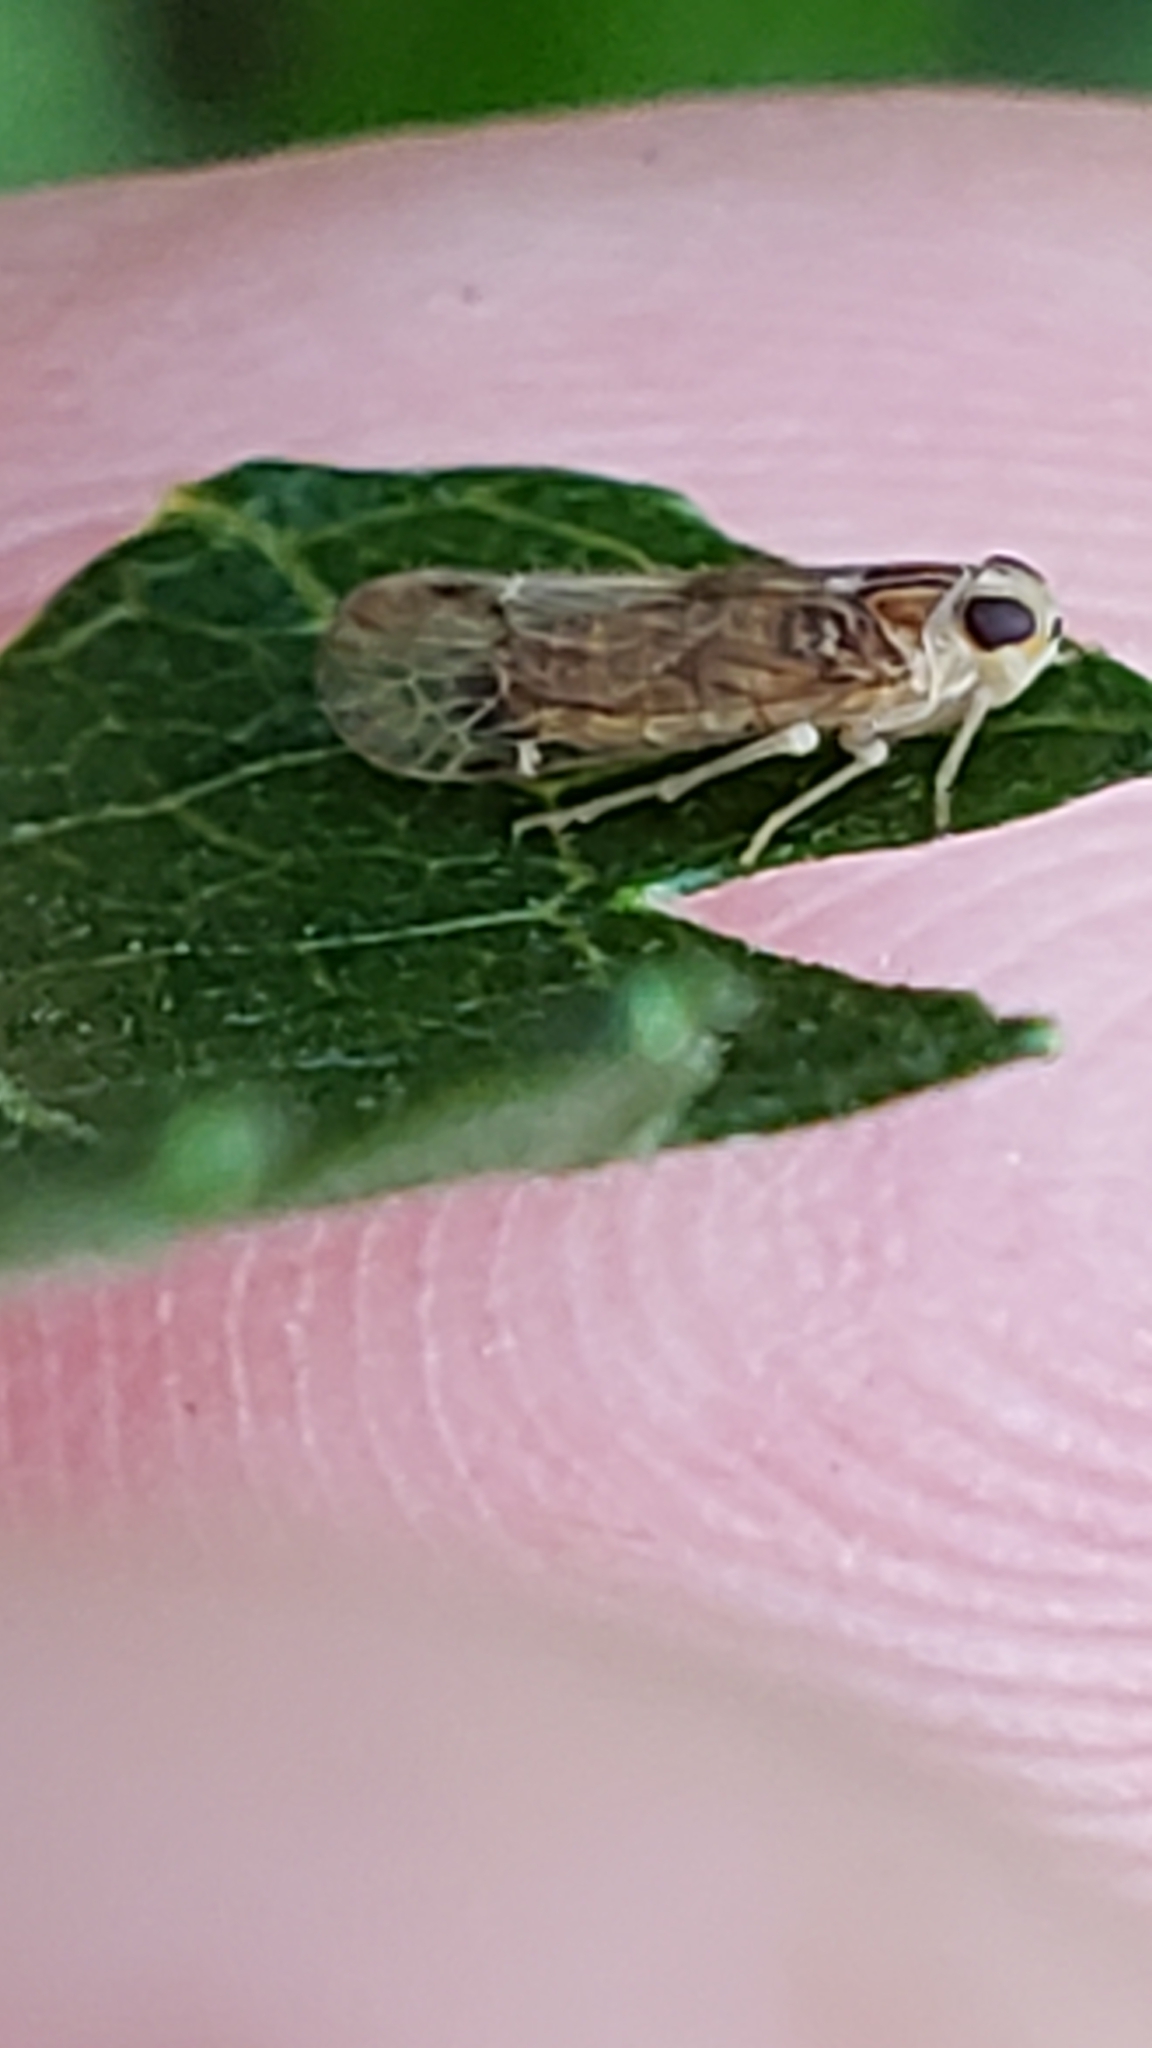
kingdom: Animalia
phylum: Arthropoda
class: Insecta
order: Hemiptera
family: Cixiidae
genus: Haplaxius
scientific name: Haplaxius radicis
